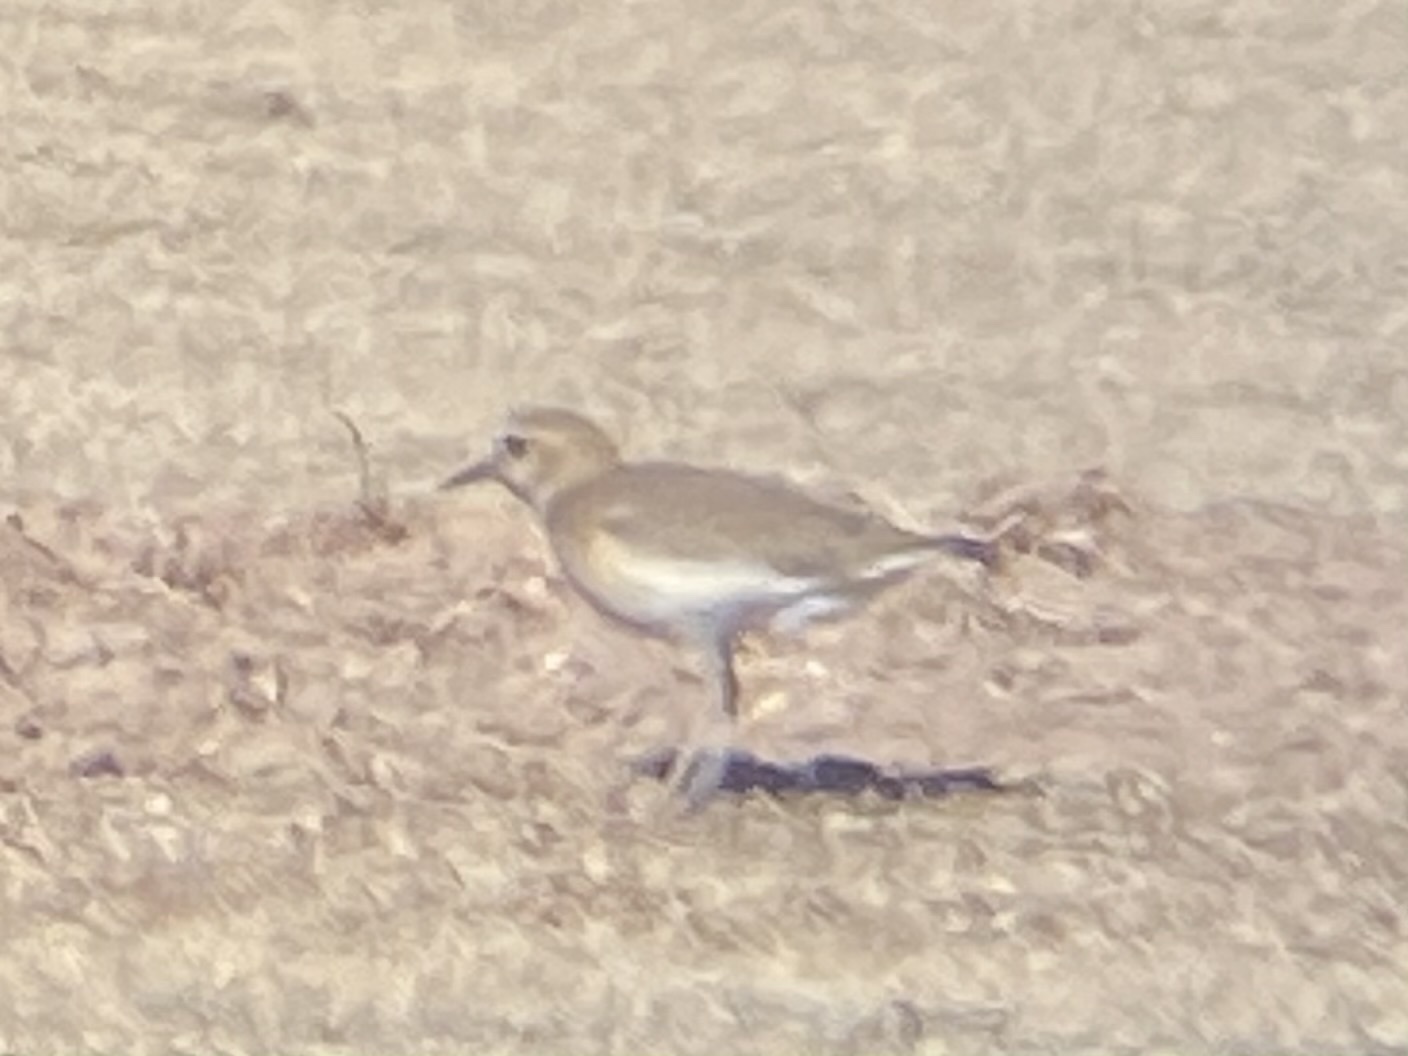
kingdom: Animalia
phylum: Chordata
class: Aves
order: Charadriiformes
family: Charadriidae
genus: Anarhynchus
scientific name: Anarhynchus
